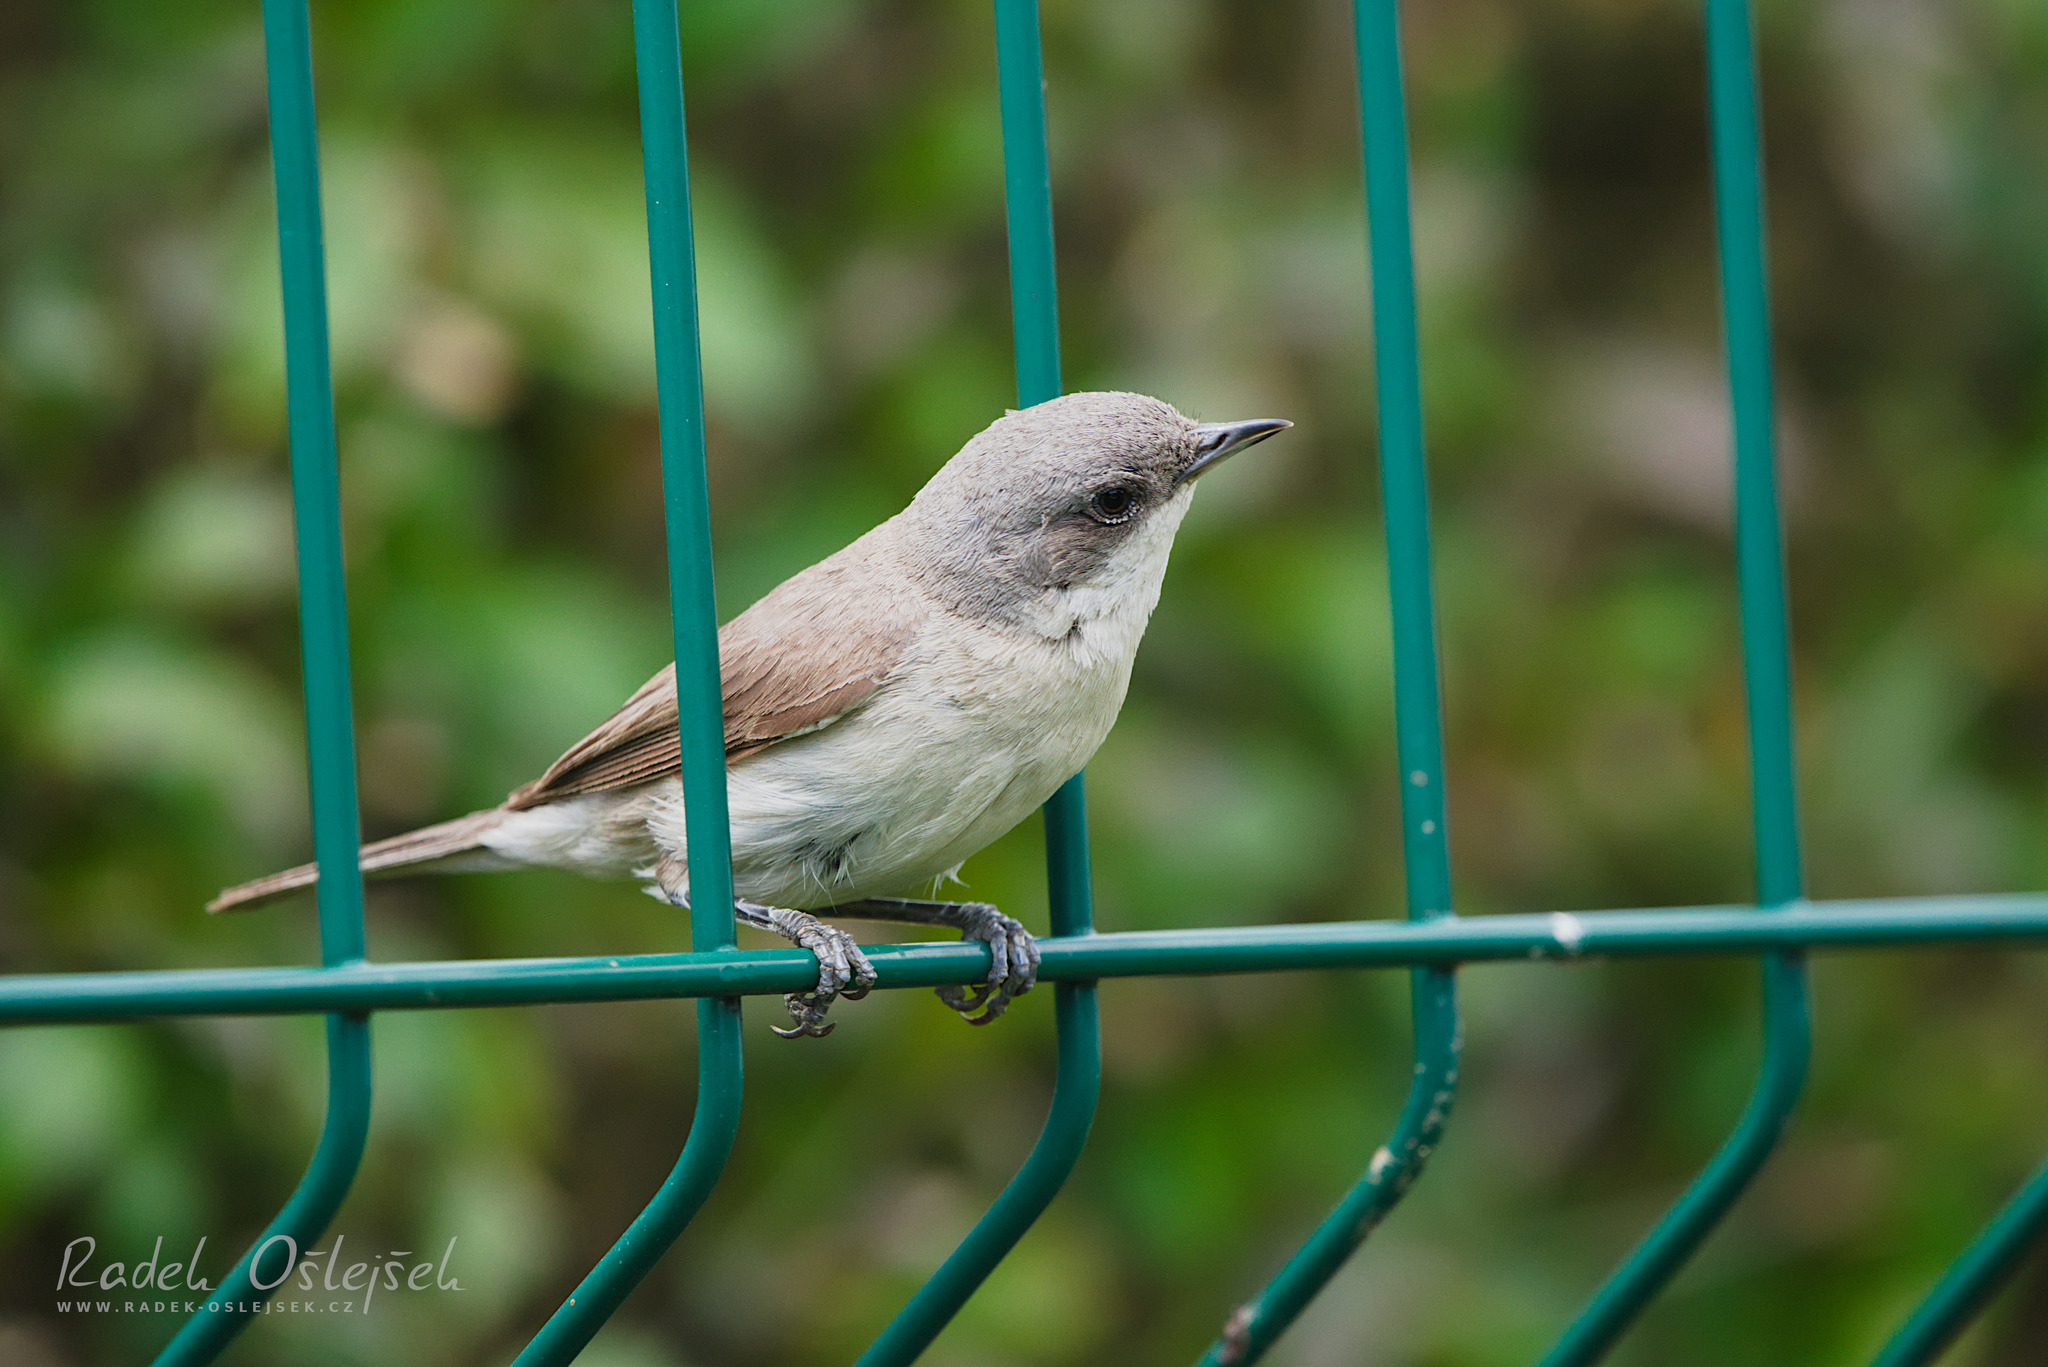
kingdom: Animalia
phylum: Chordata
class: Aves
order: Passeriformes
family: Sylviidae
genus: Sylvia
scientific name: Sylvia curruca
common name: Lesser whitethroat
